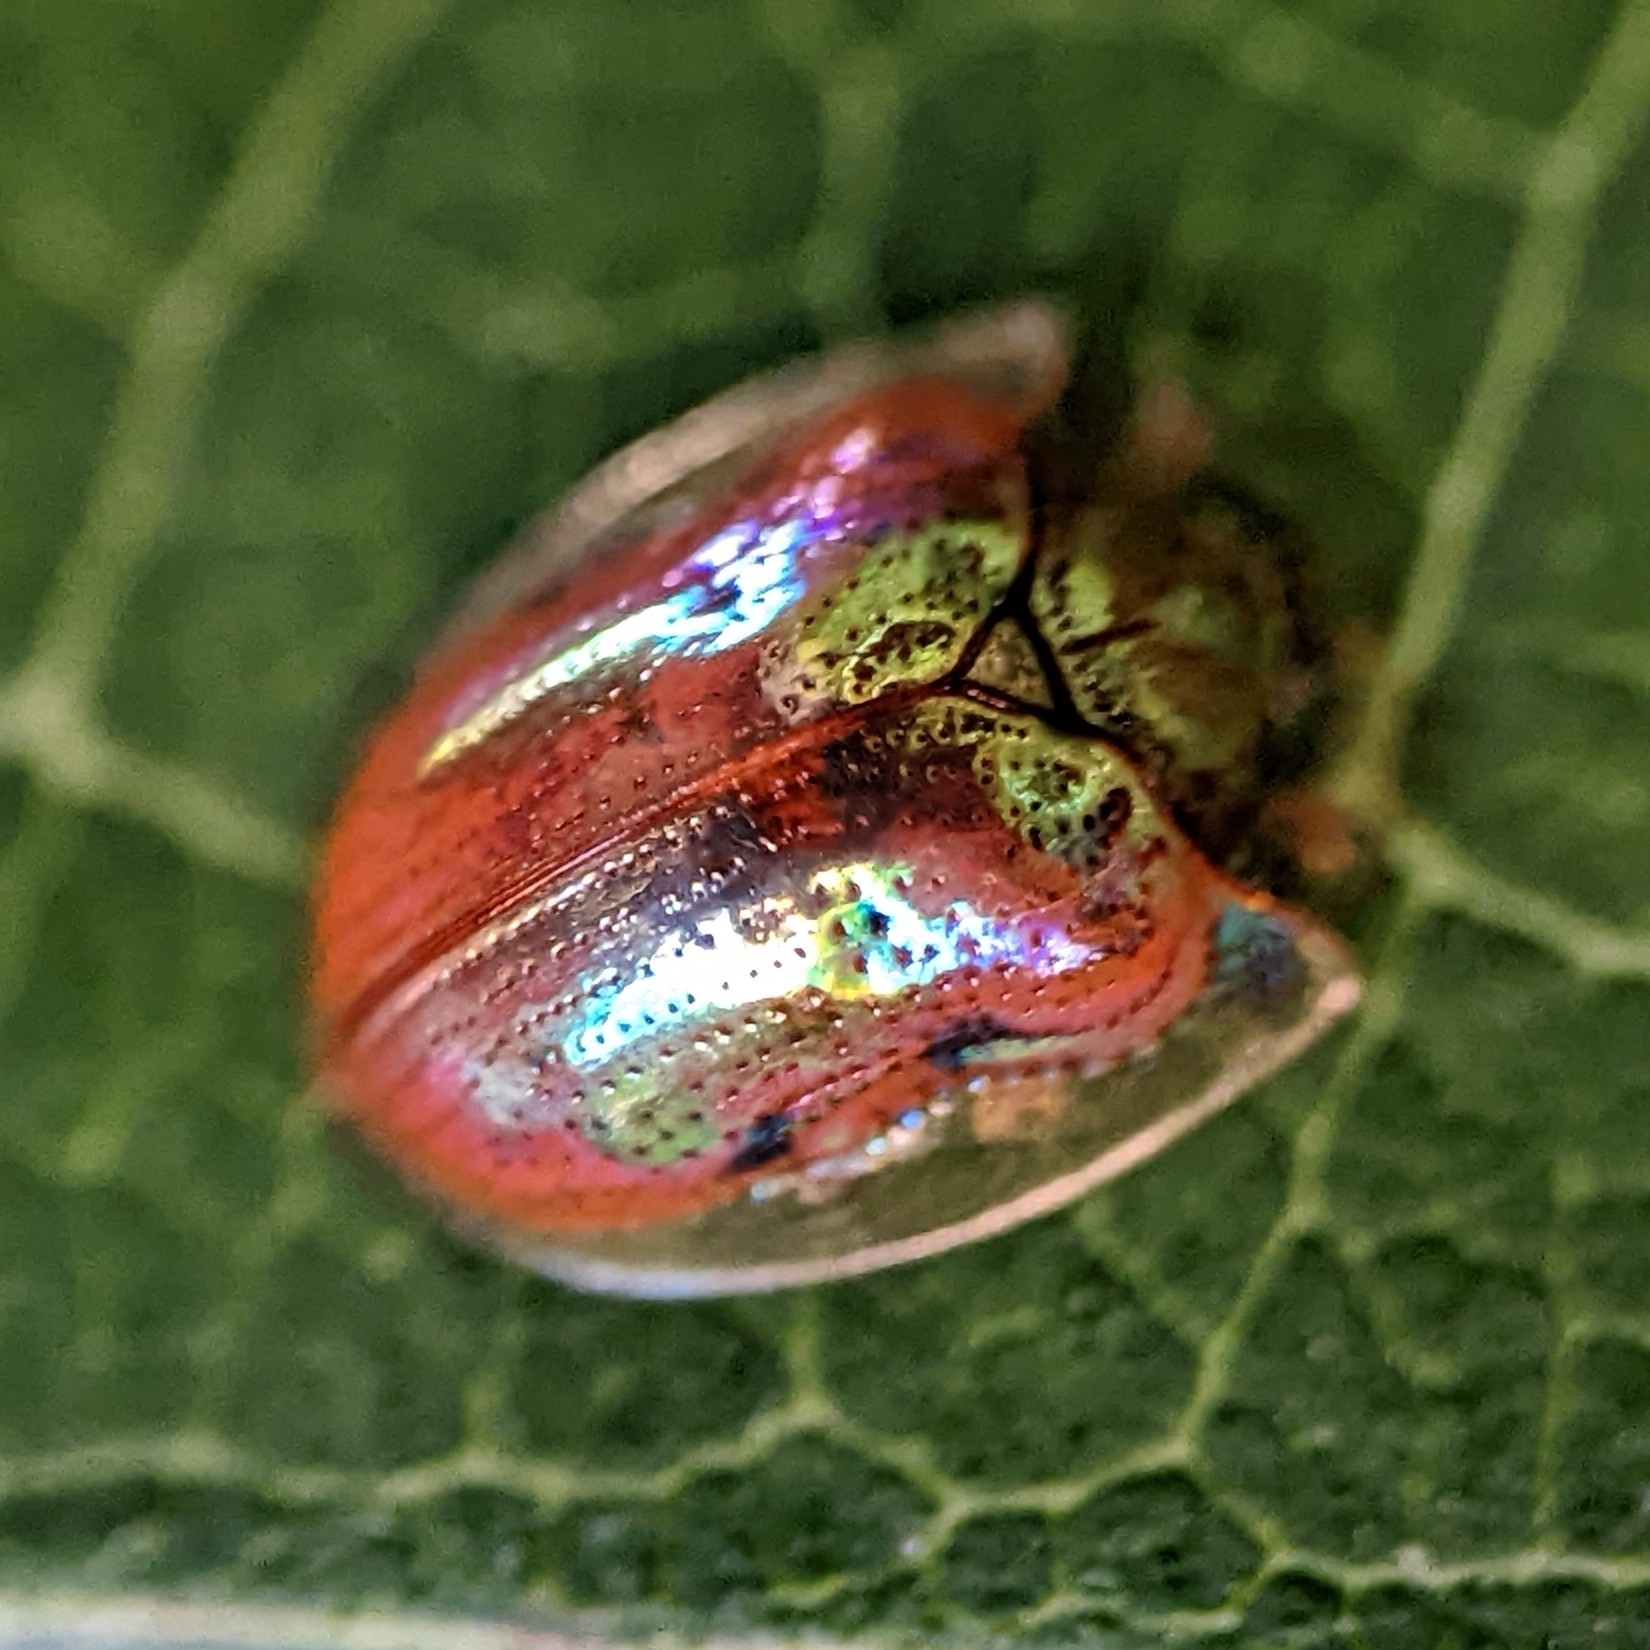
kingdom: Animalia
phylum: Arthropoda
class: Insecta
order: Coleoptera
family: Chrysomelidae
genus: Charidotella
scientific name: Charidotella sexpunctata
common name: Golden tortoise beetle
